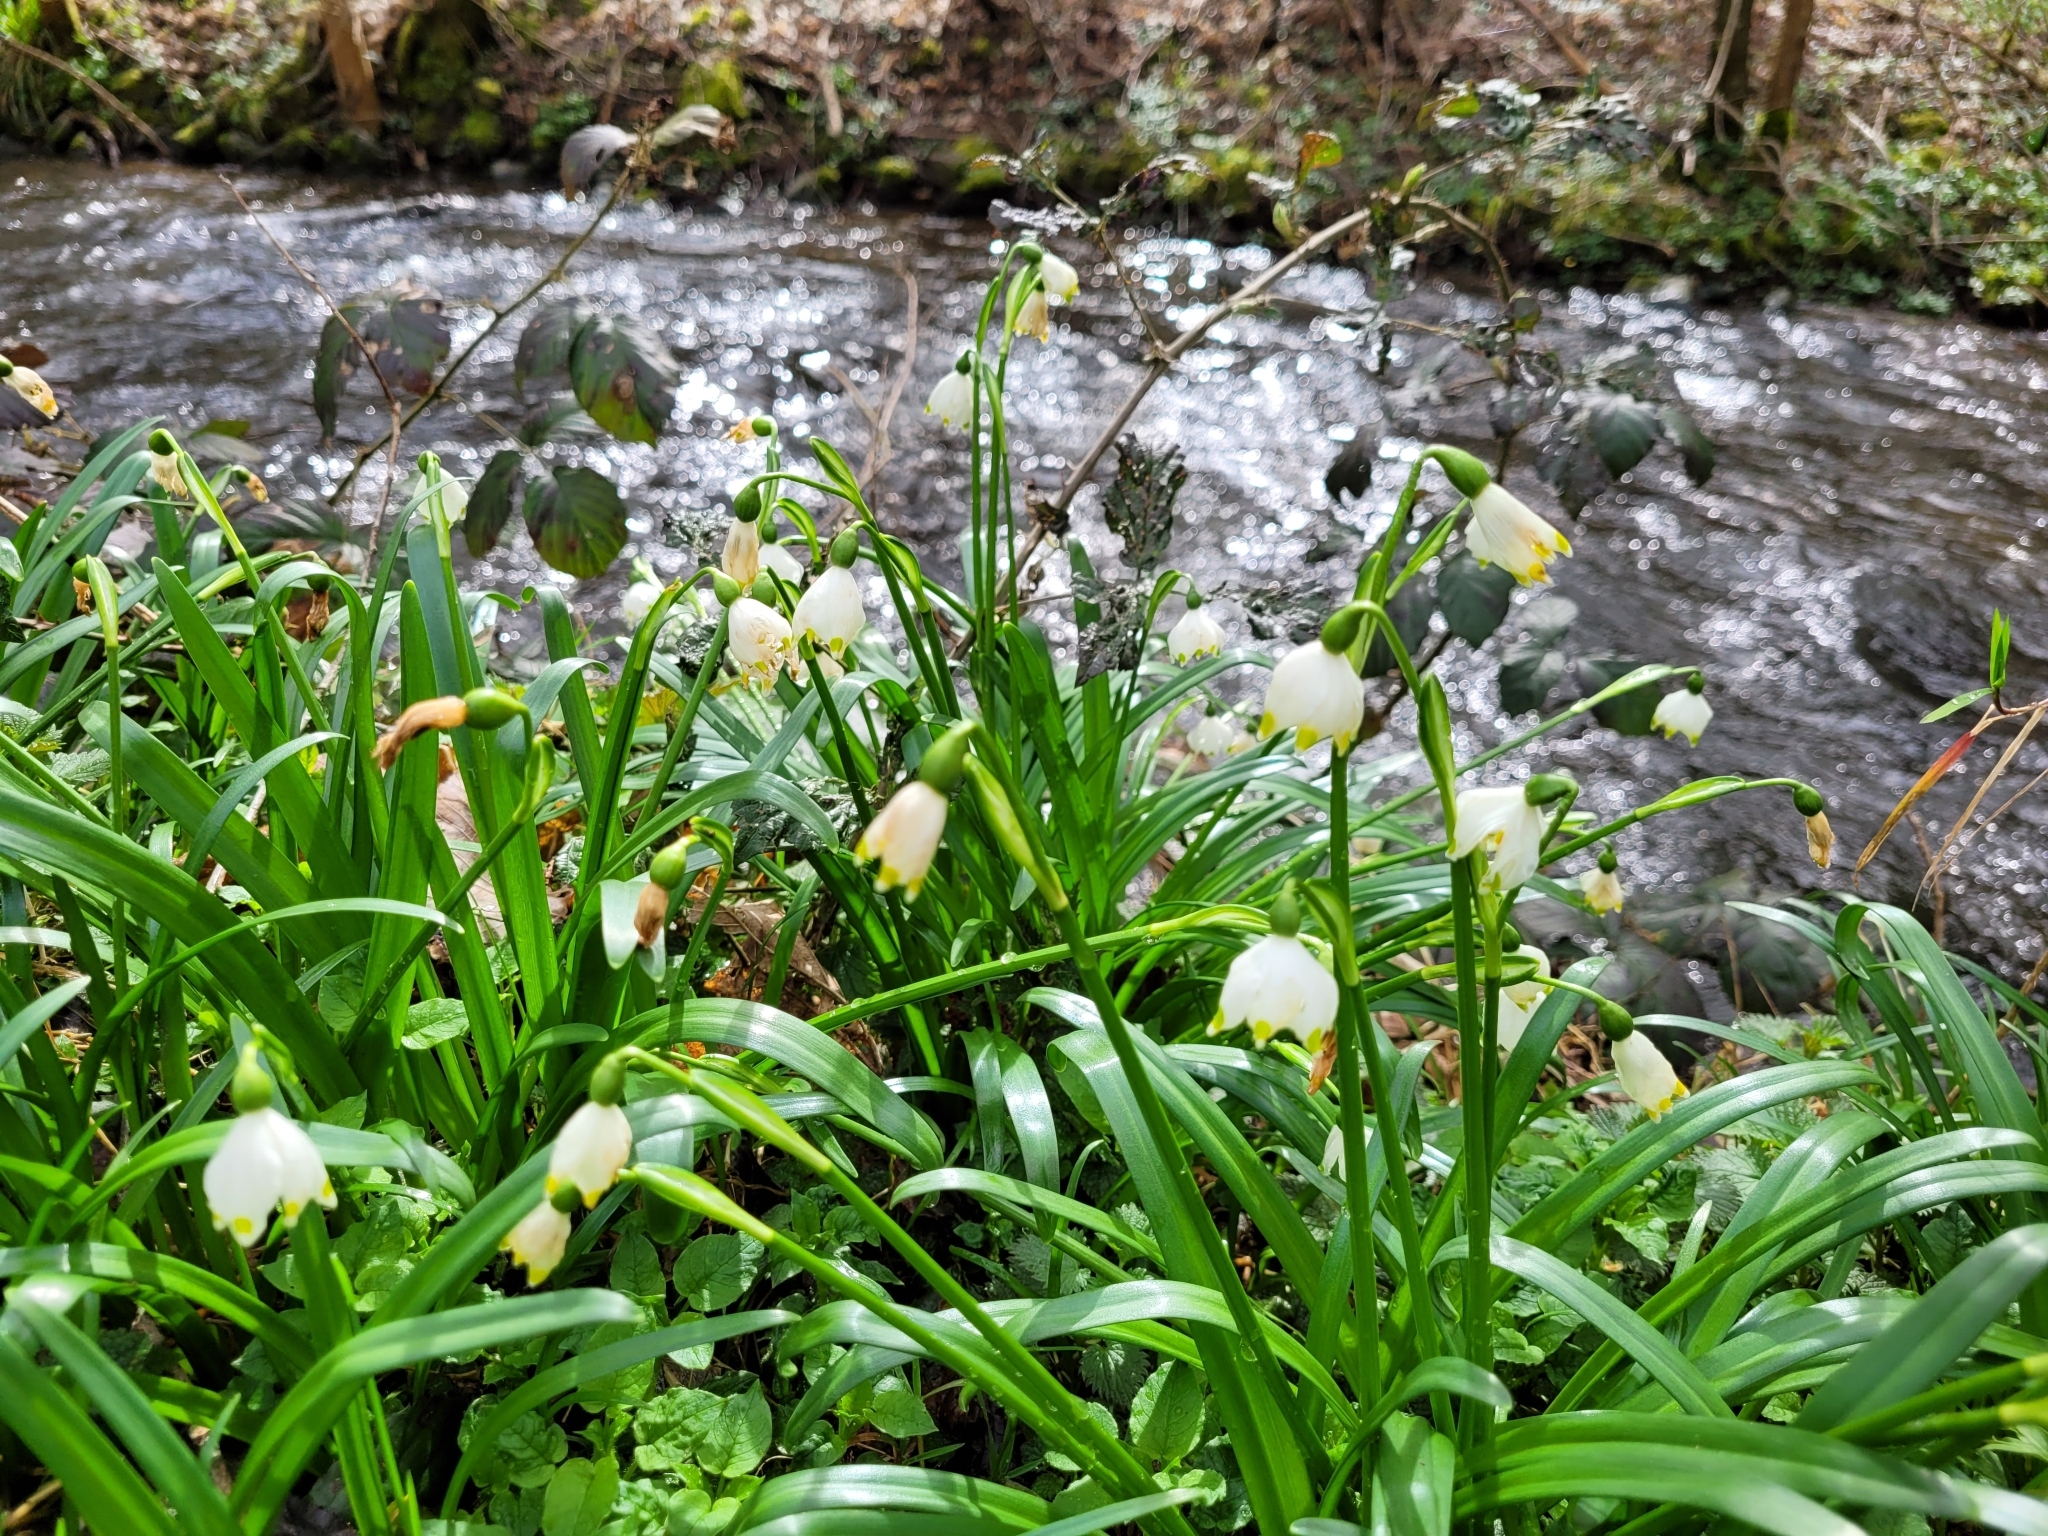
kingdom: Plantae
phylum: Tracheophyta
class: Liliopsida
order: Asparagales
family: Amaryllidaceae
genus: Leucojum
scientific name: Leucojum vernum
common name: Spring snowflake
